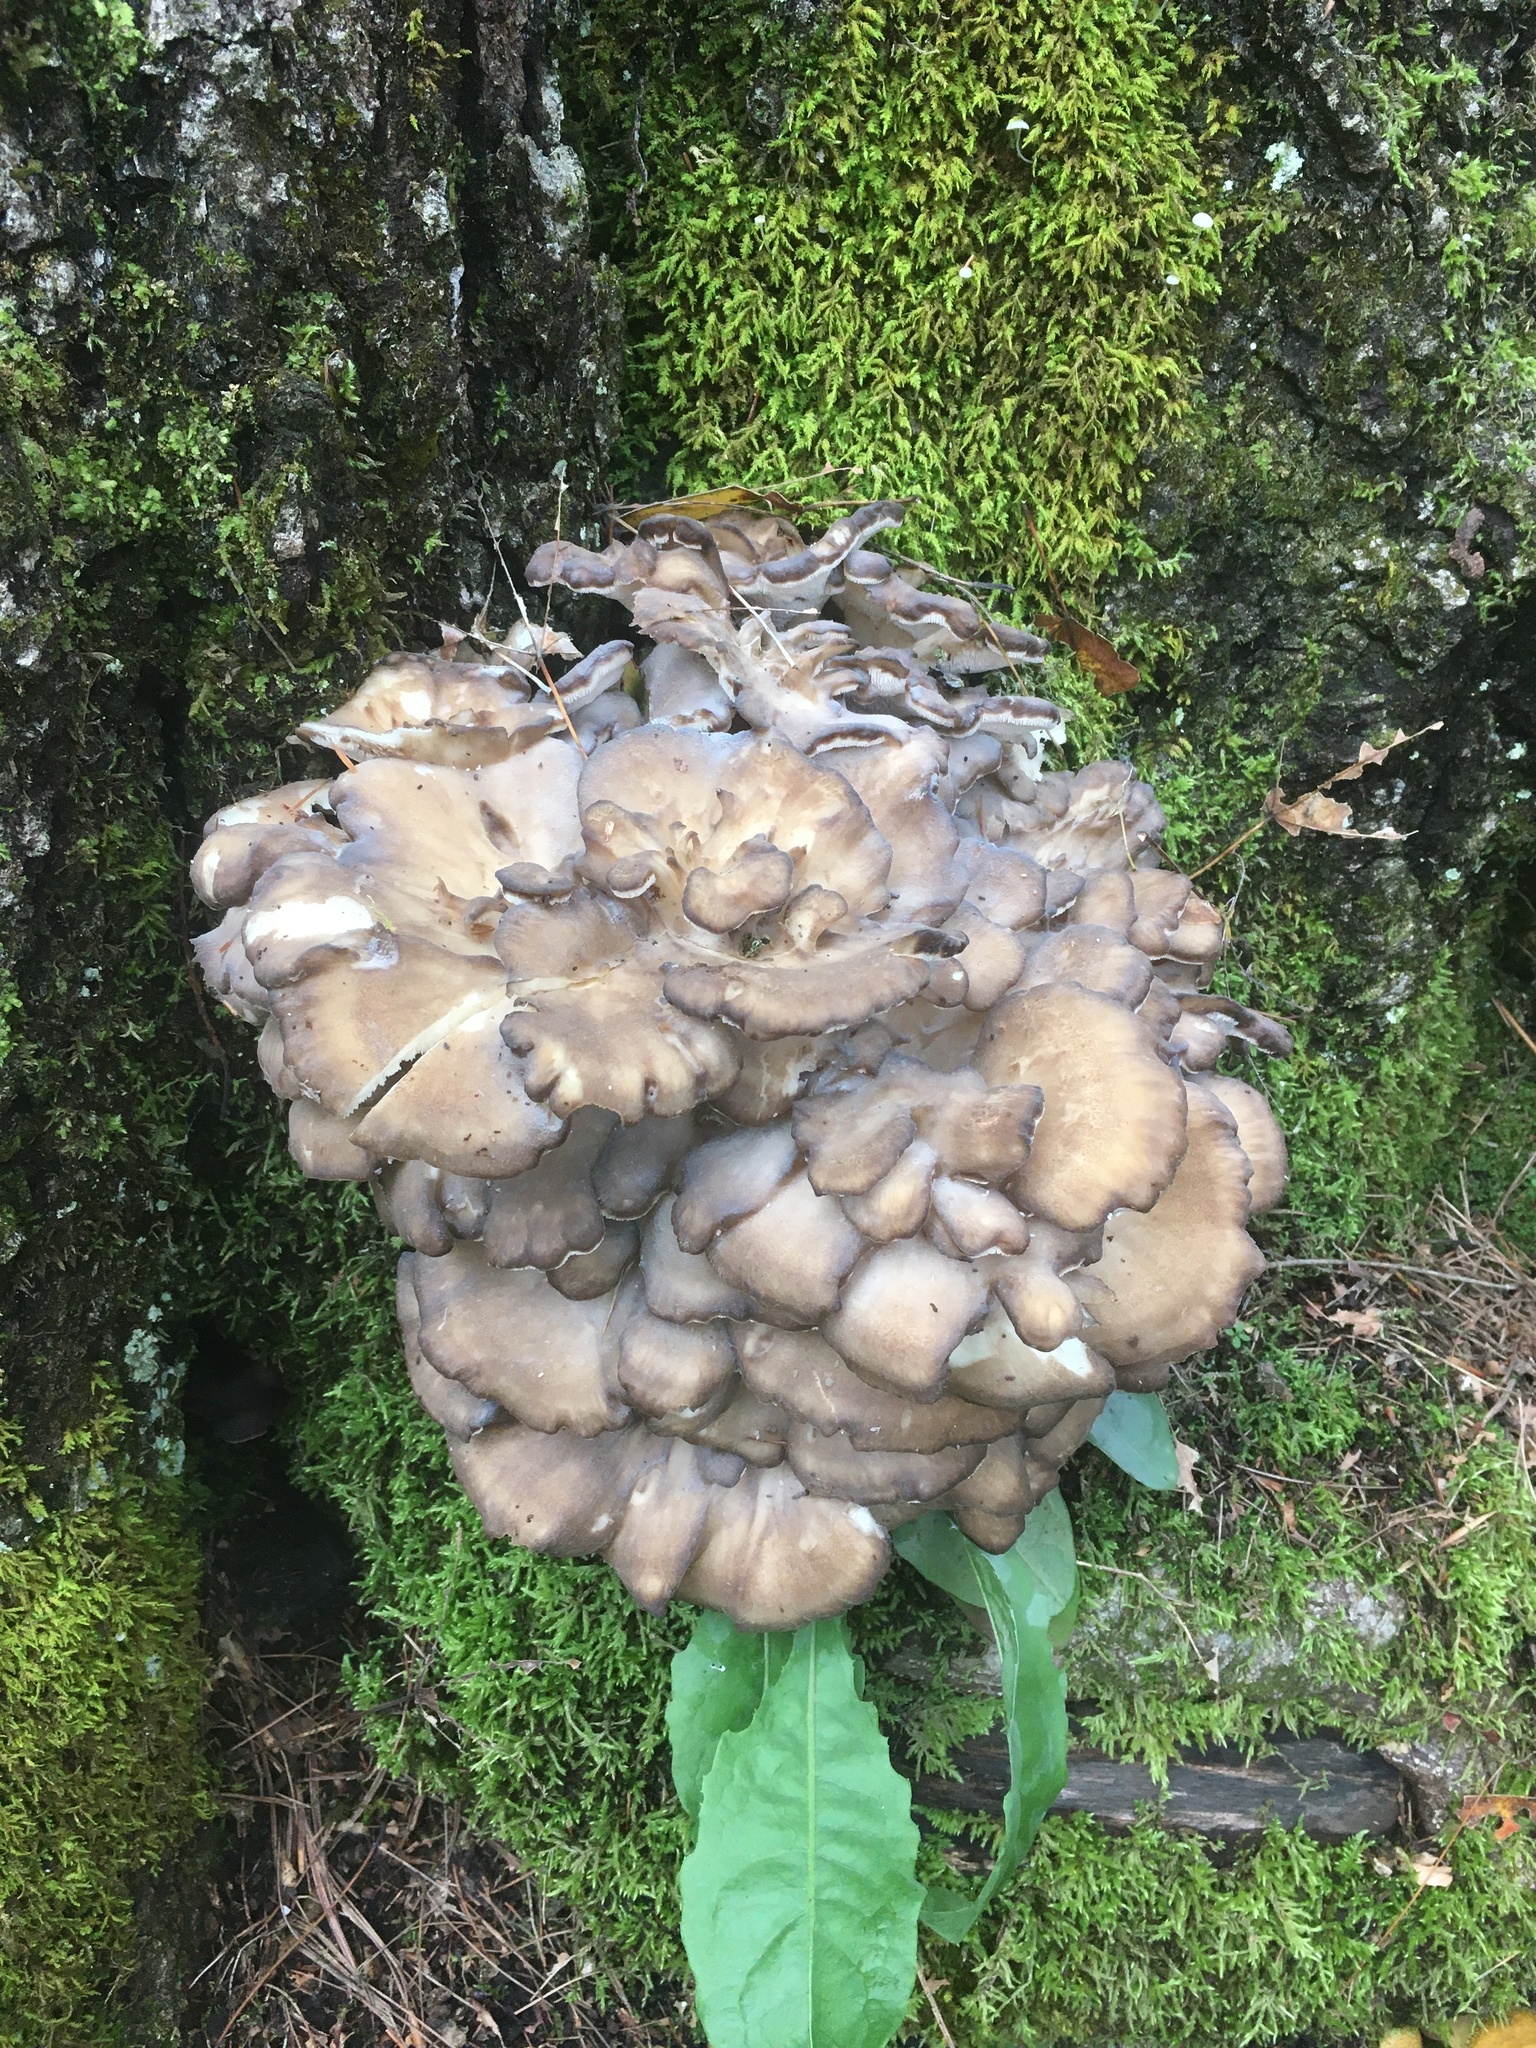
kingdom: Fungi
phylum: Basidiomycota
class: Agaricomycetes
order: Polyporales
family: Grifolaceae
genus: Grifola
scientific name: Grifola frondosa
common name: Hen of the woods
